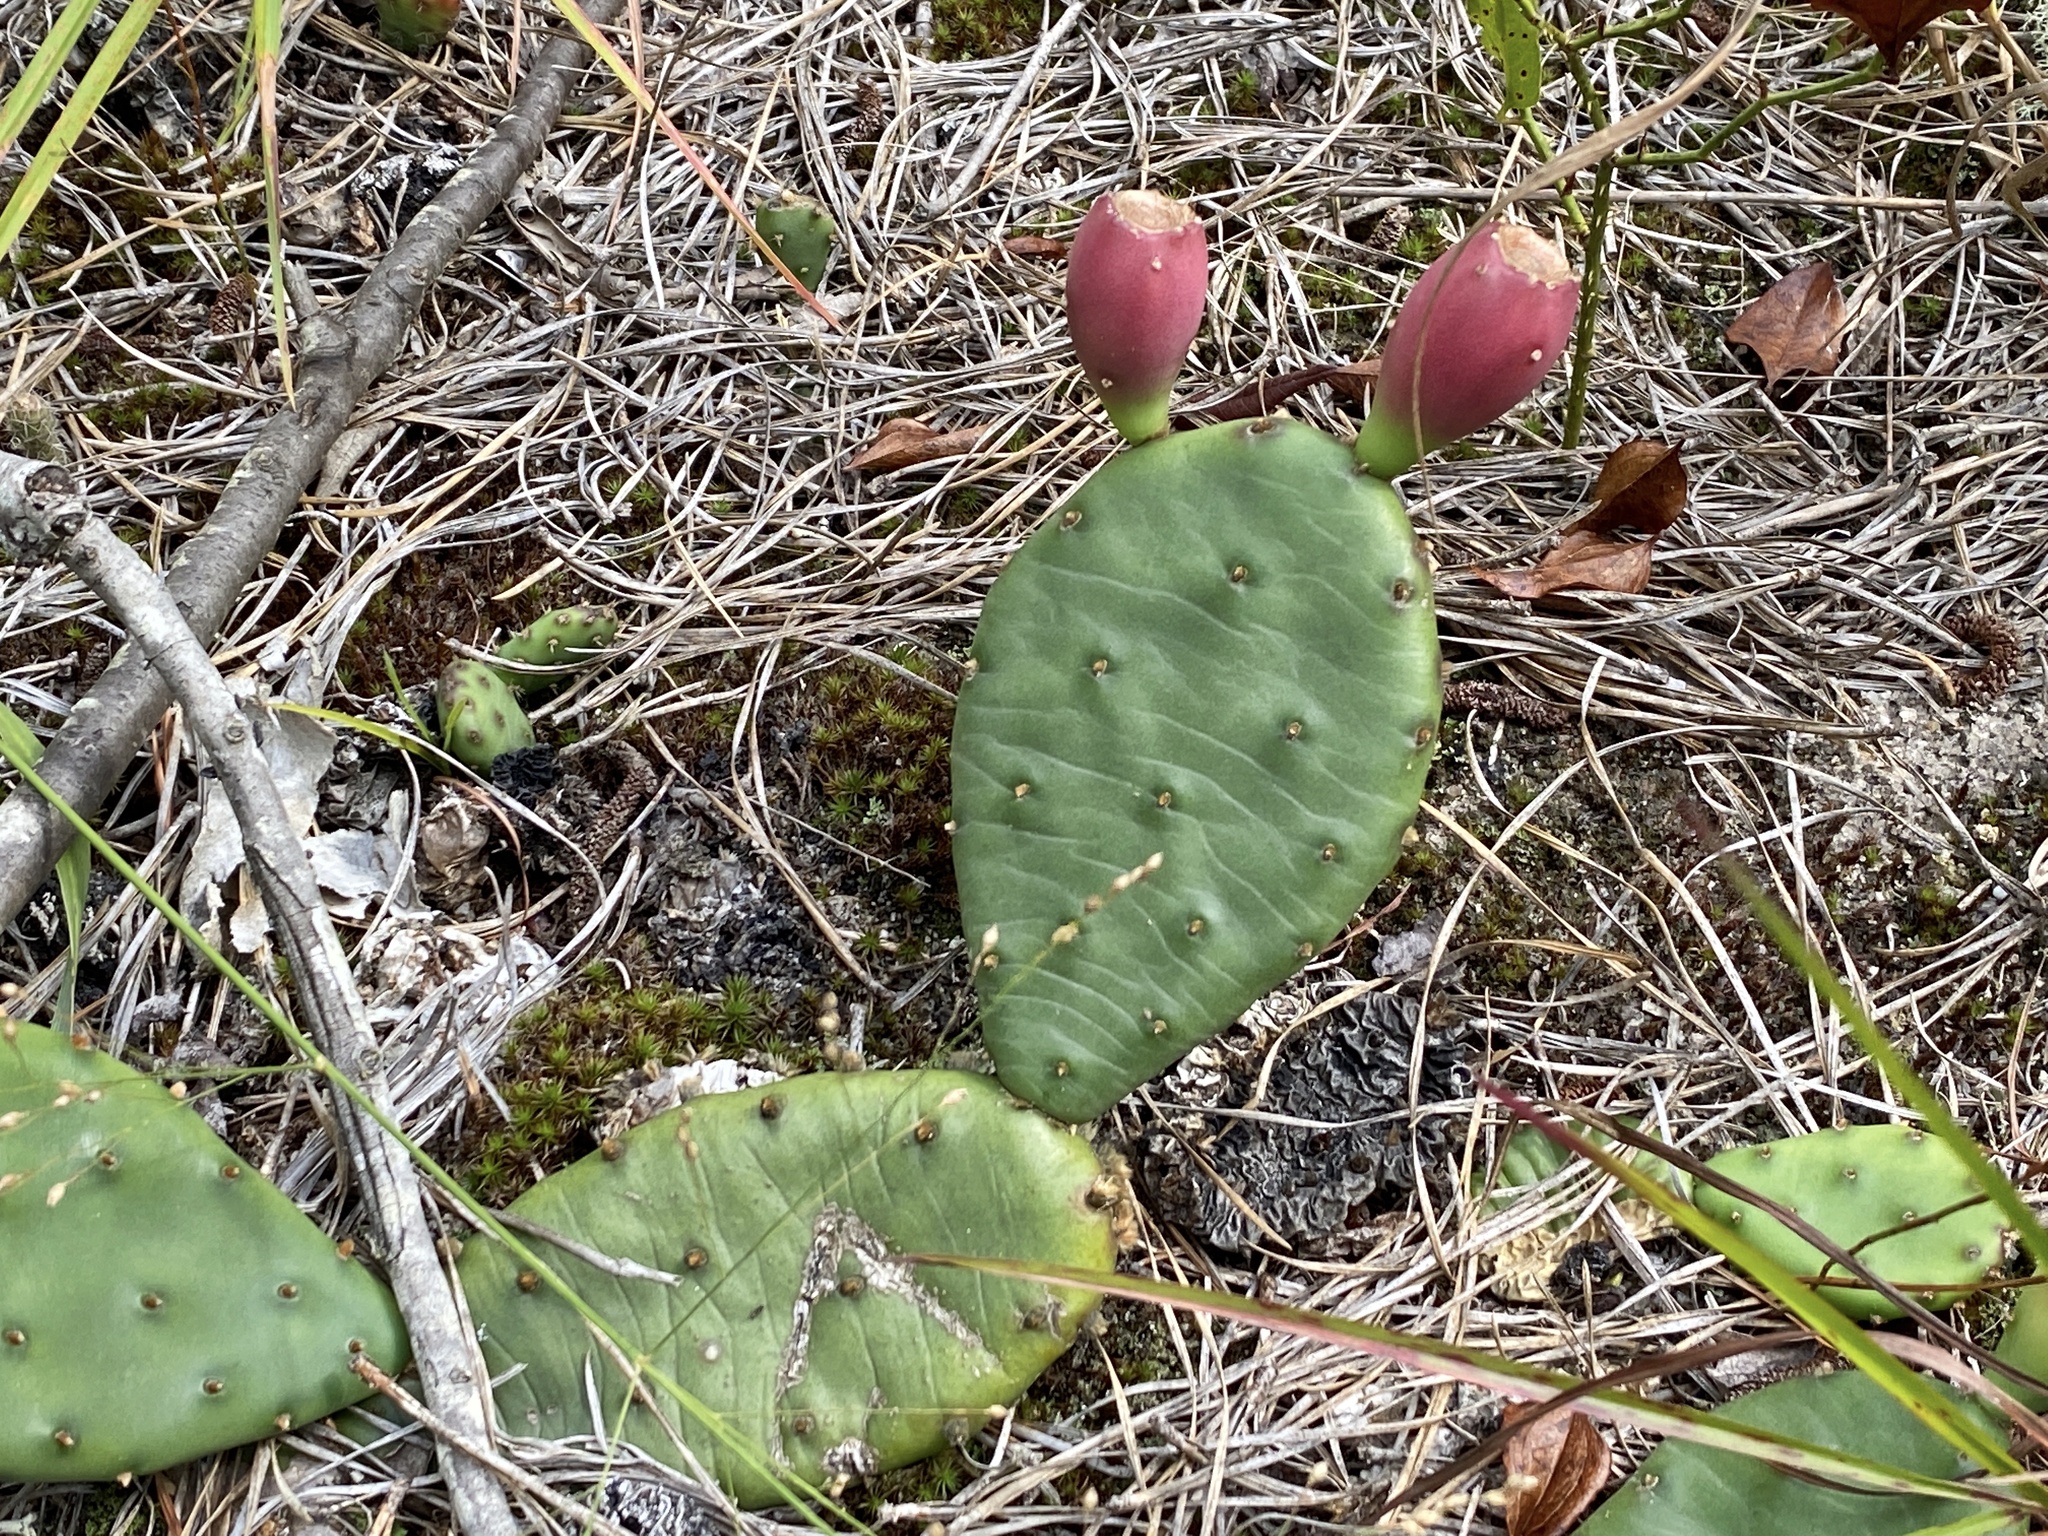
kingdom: Plantae
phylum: Tracheophyta
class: Magnoliopsida
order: Caryophyllales
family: Cactaceae
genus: Opuntia
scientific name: Opuntia humifusa
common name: Eastern prickly-pear
